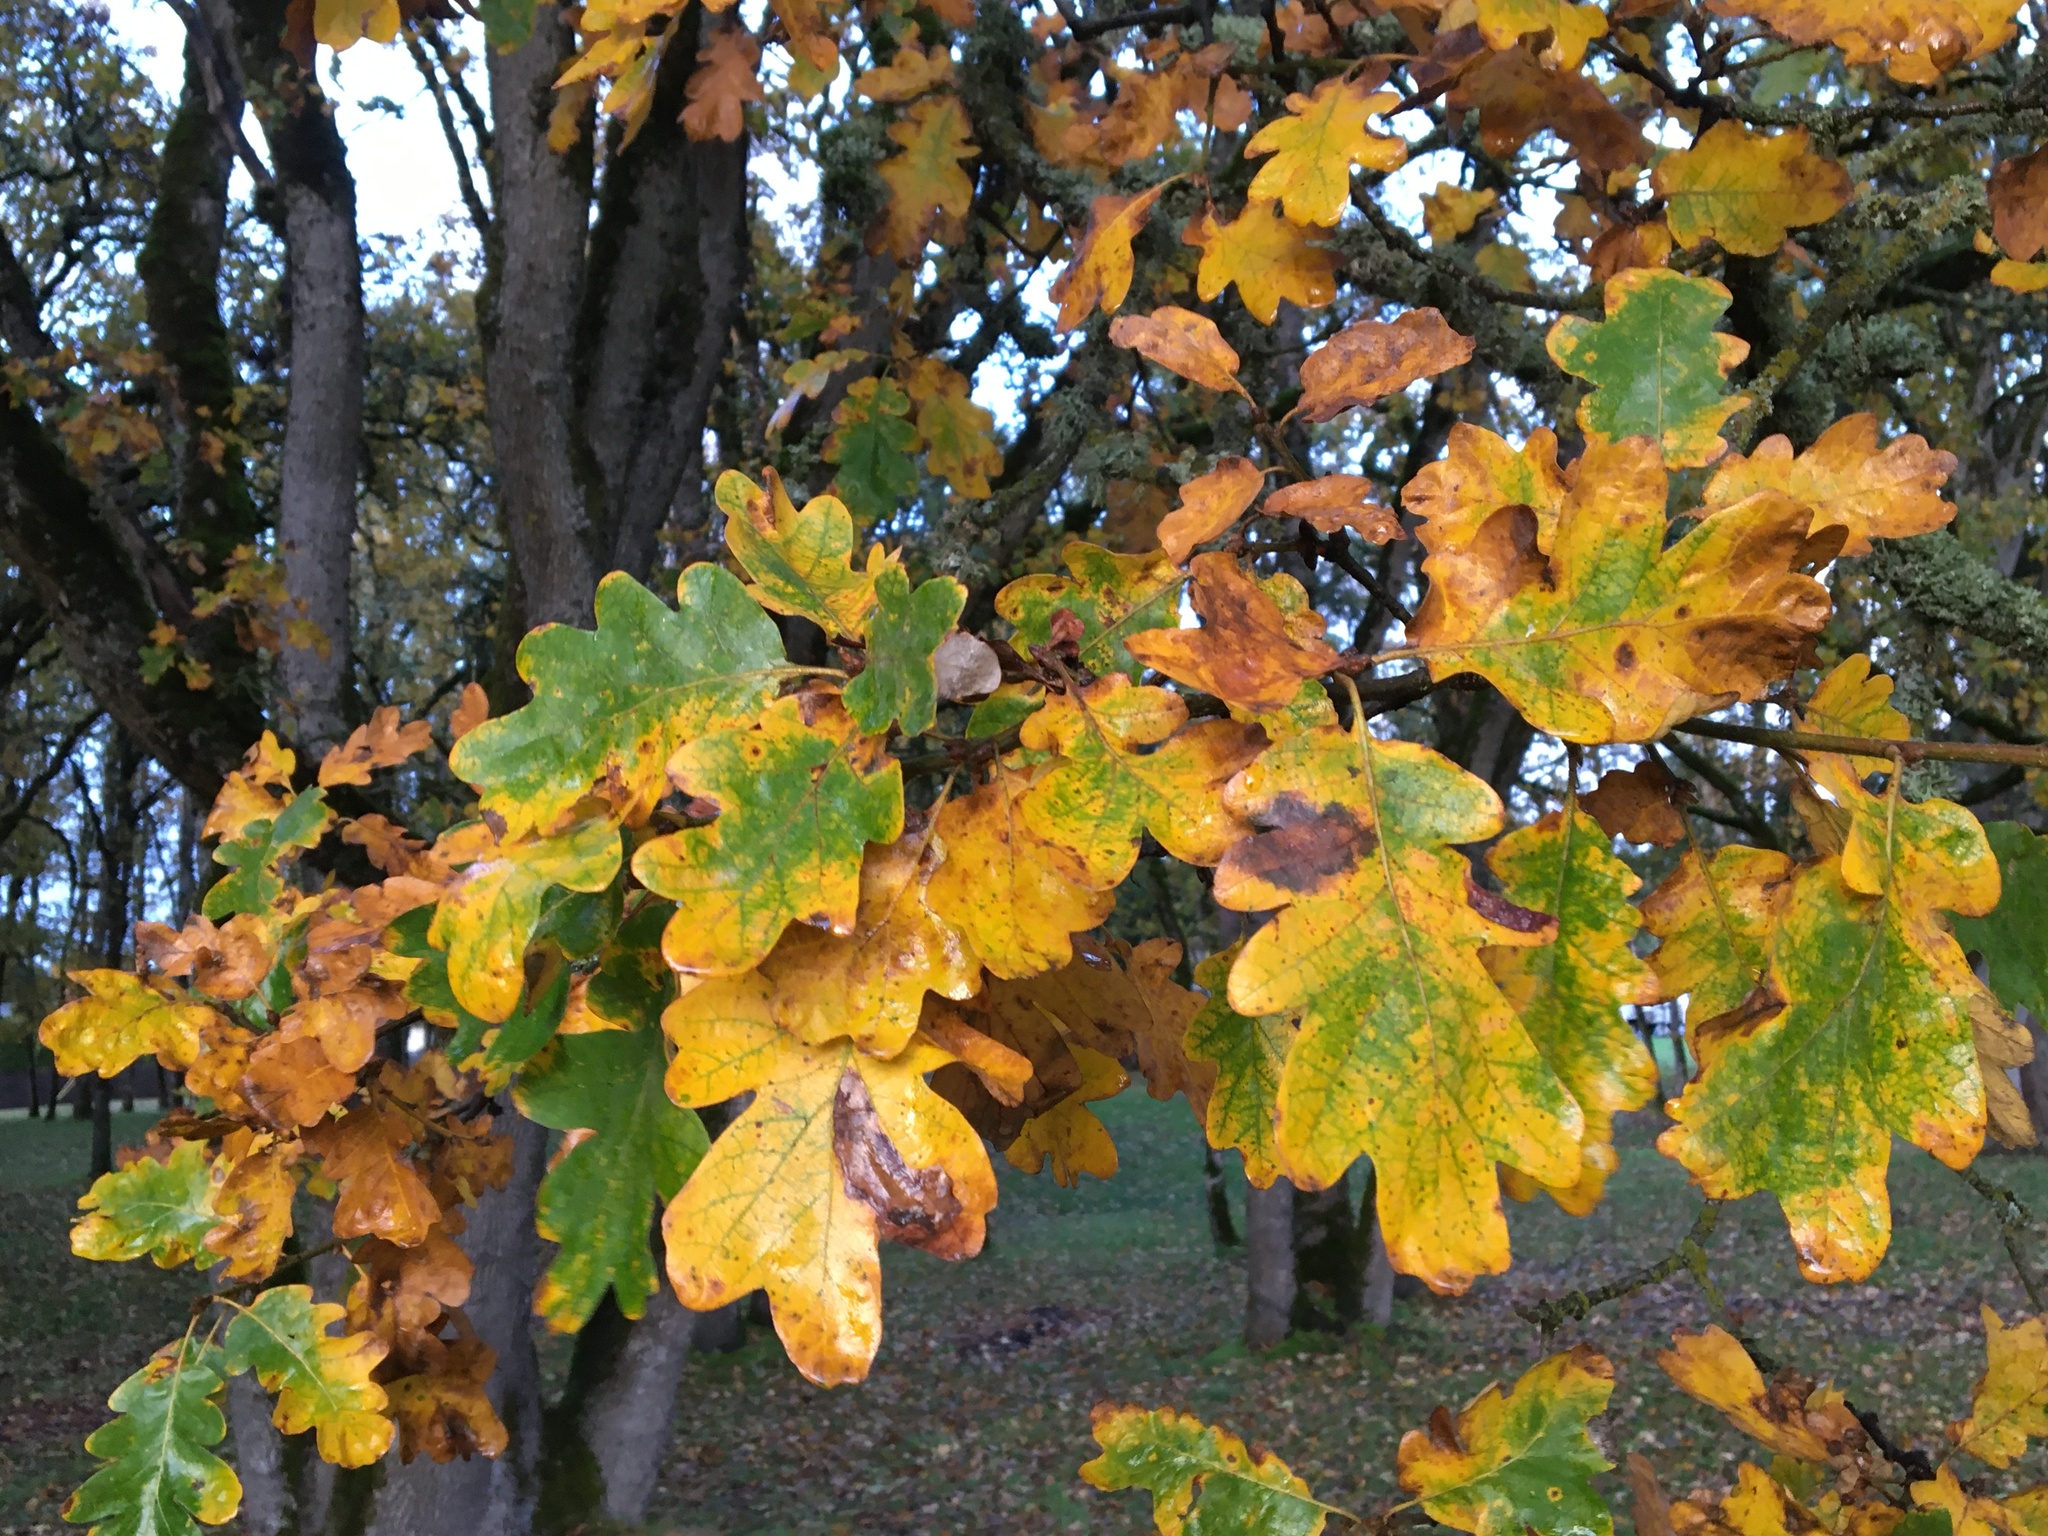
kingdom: Plantae
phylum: Tracheophyta
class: Magnoliopsida
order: Fagales
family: Fagaceae
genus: Quercus
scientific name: Quercus garryana
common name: Garry oak
